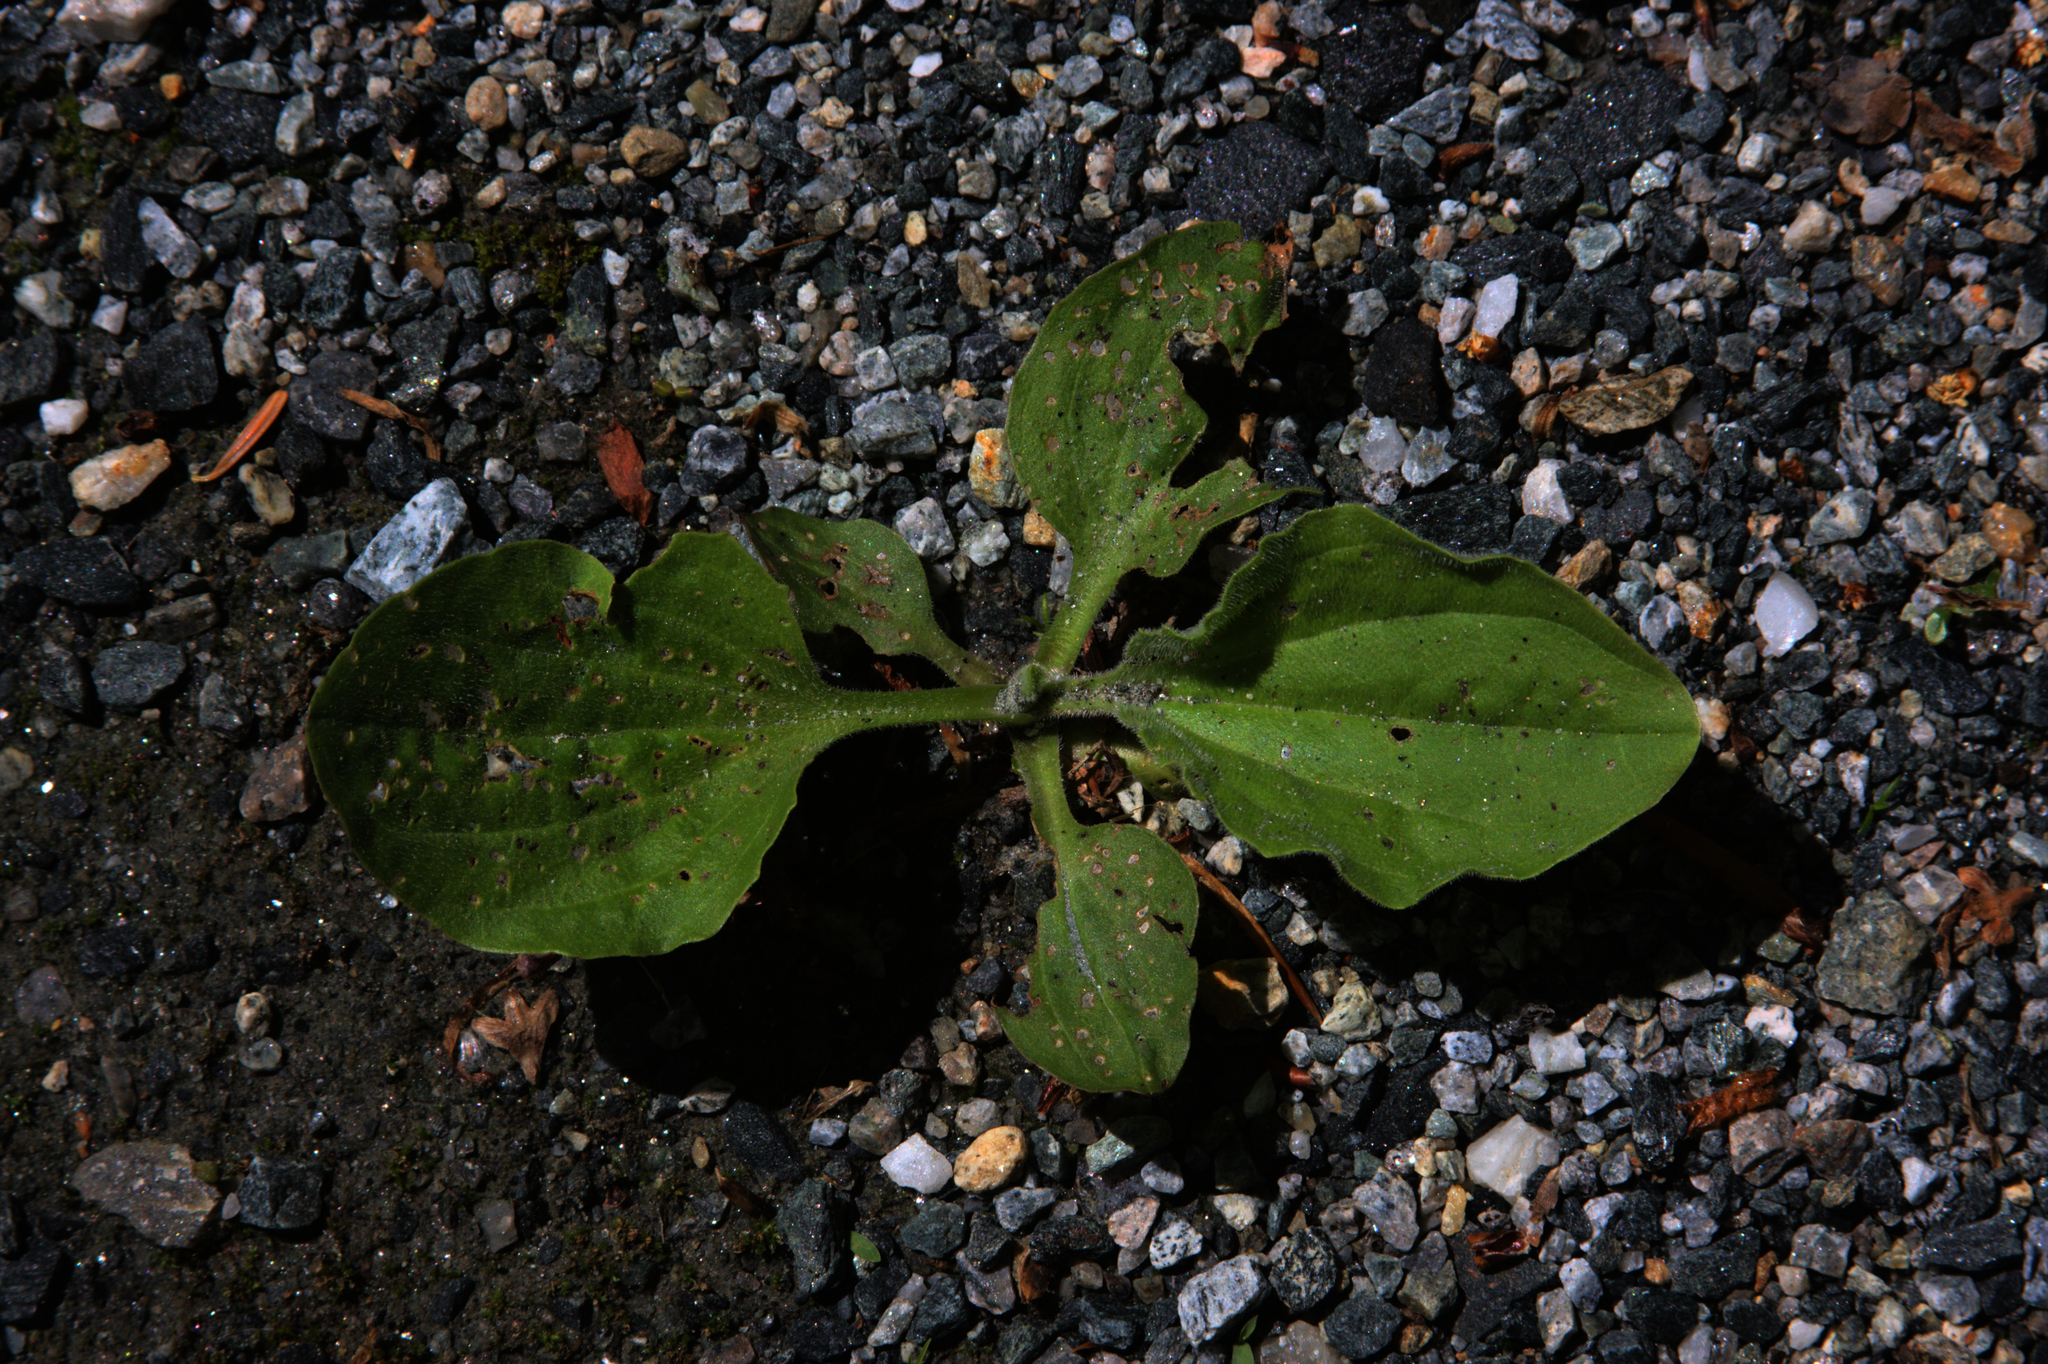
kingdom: Plantae
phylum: Tracheophyta
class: Magnoliopsida
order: Lamiales
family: Plantaginaceae
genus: Plantago
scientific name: Plantago major
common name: Common plantain
